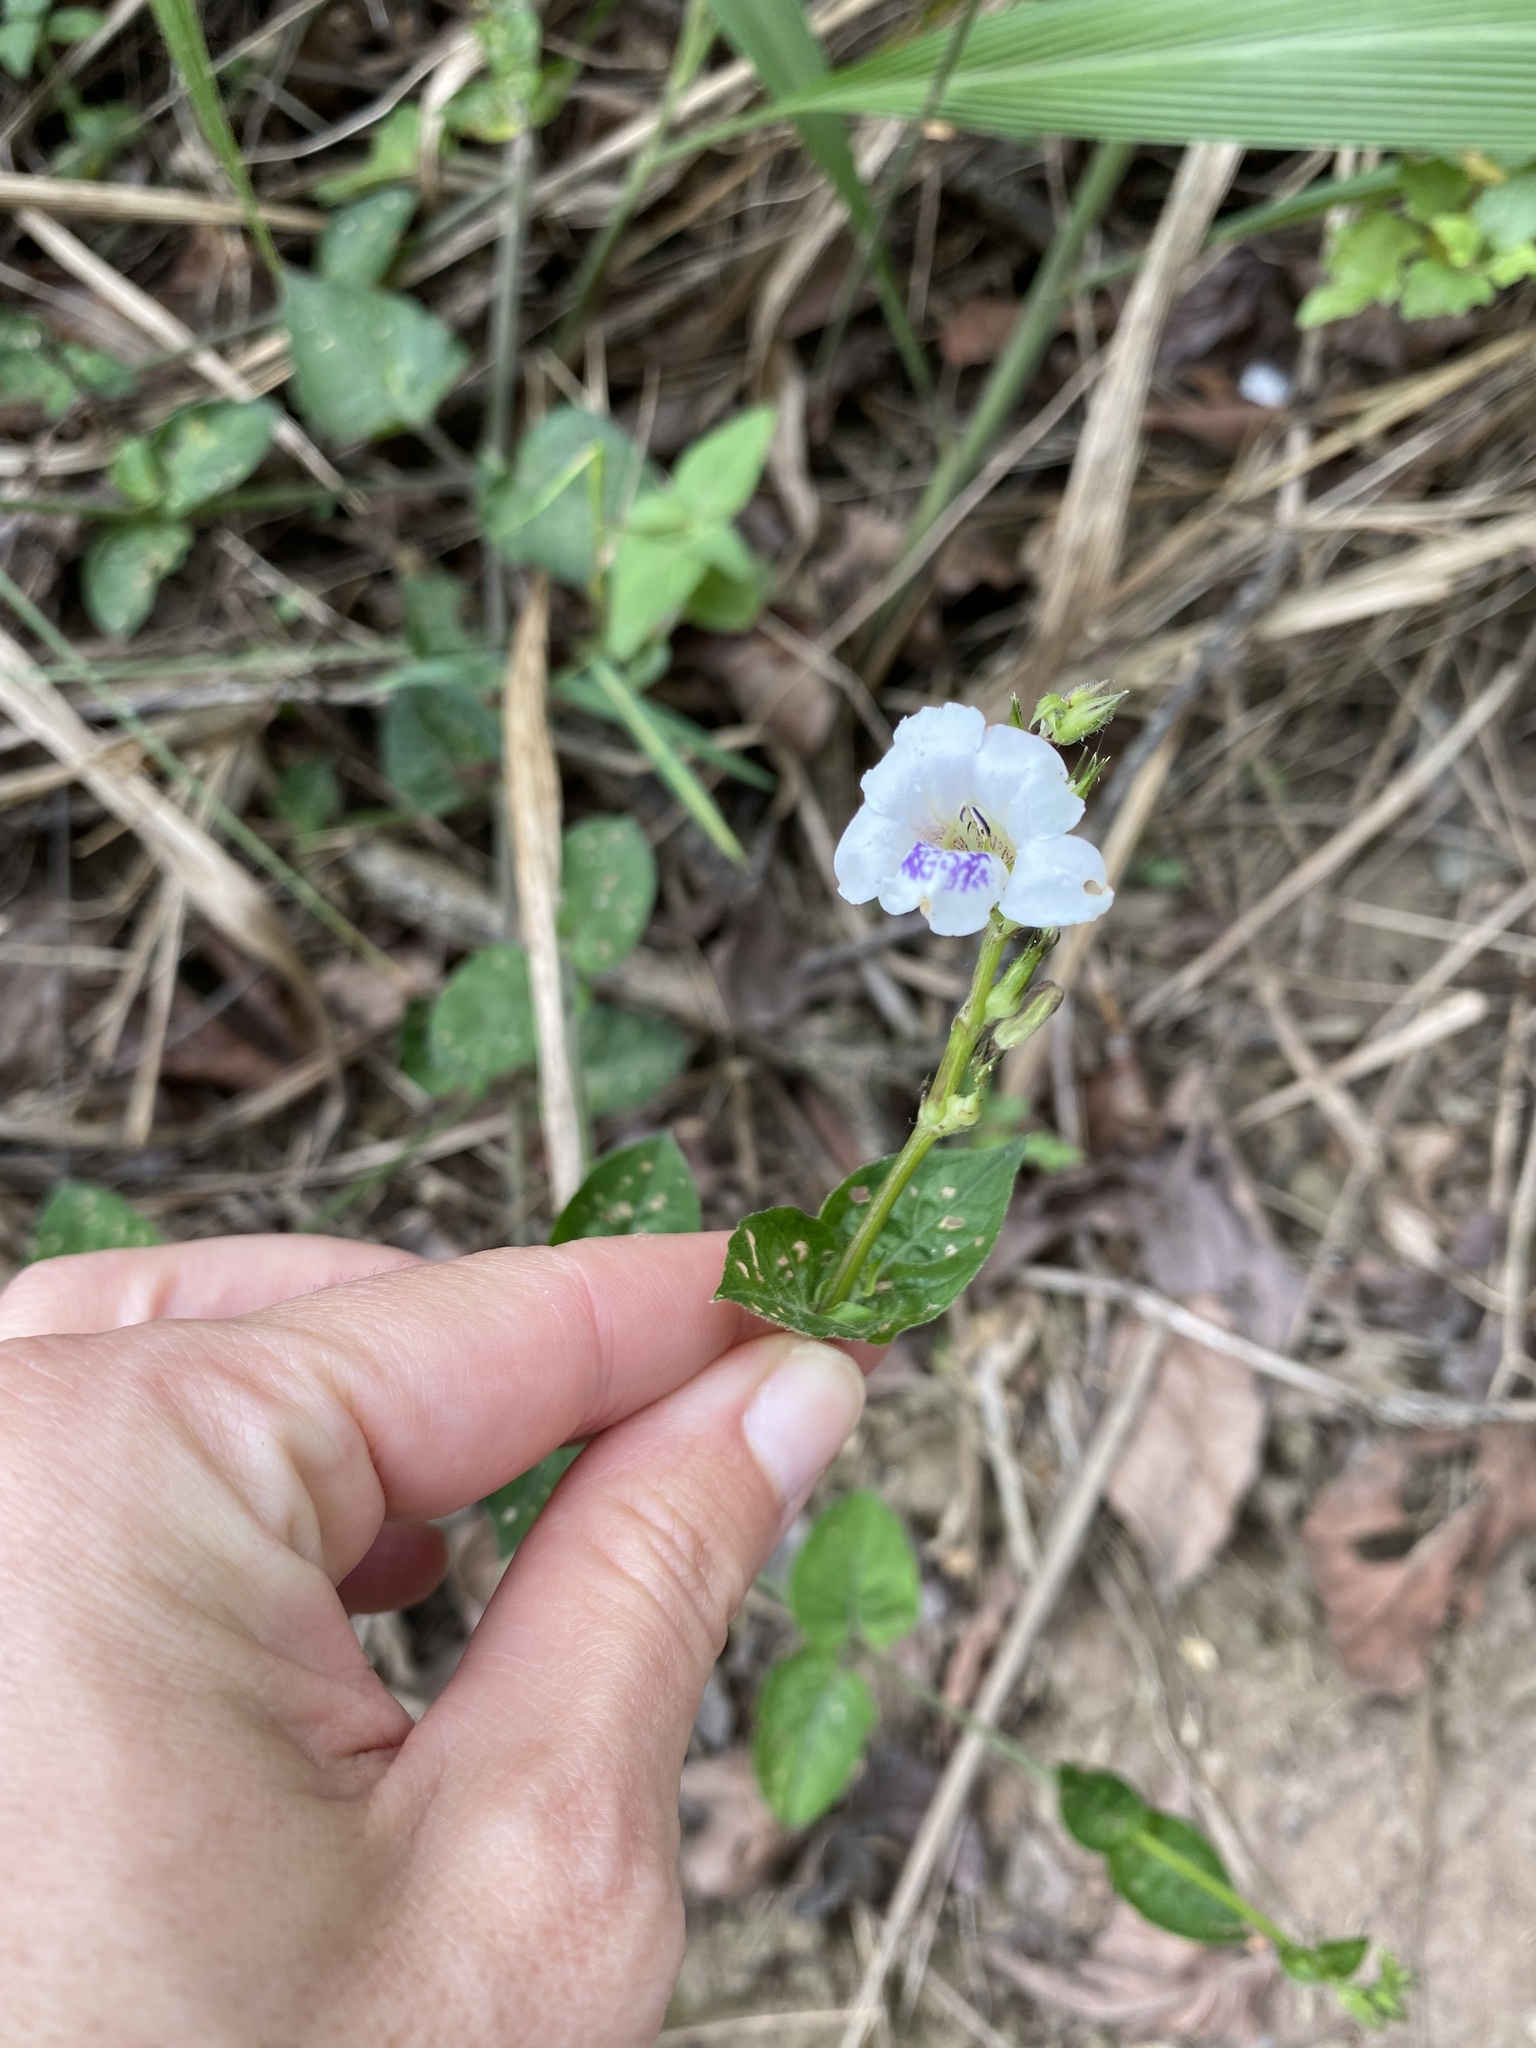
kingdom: Plantae
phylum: Tracheophyta
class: Magnoliopsida
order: Lamiales
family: Acanthaceae
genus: Asystasia
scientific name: Asystasia intrusa
